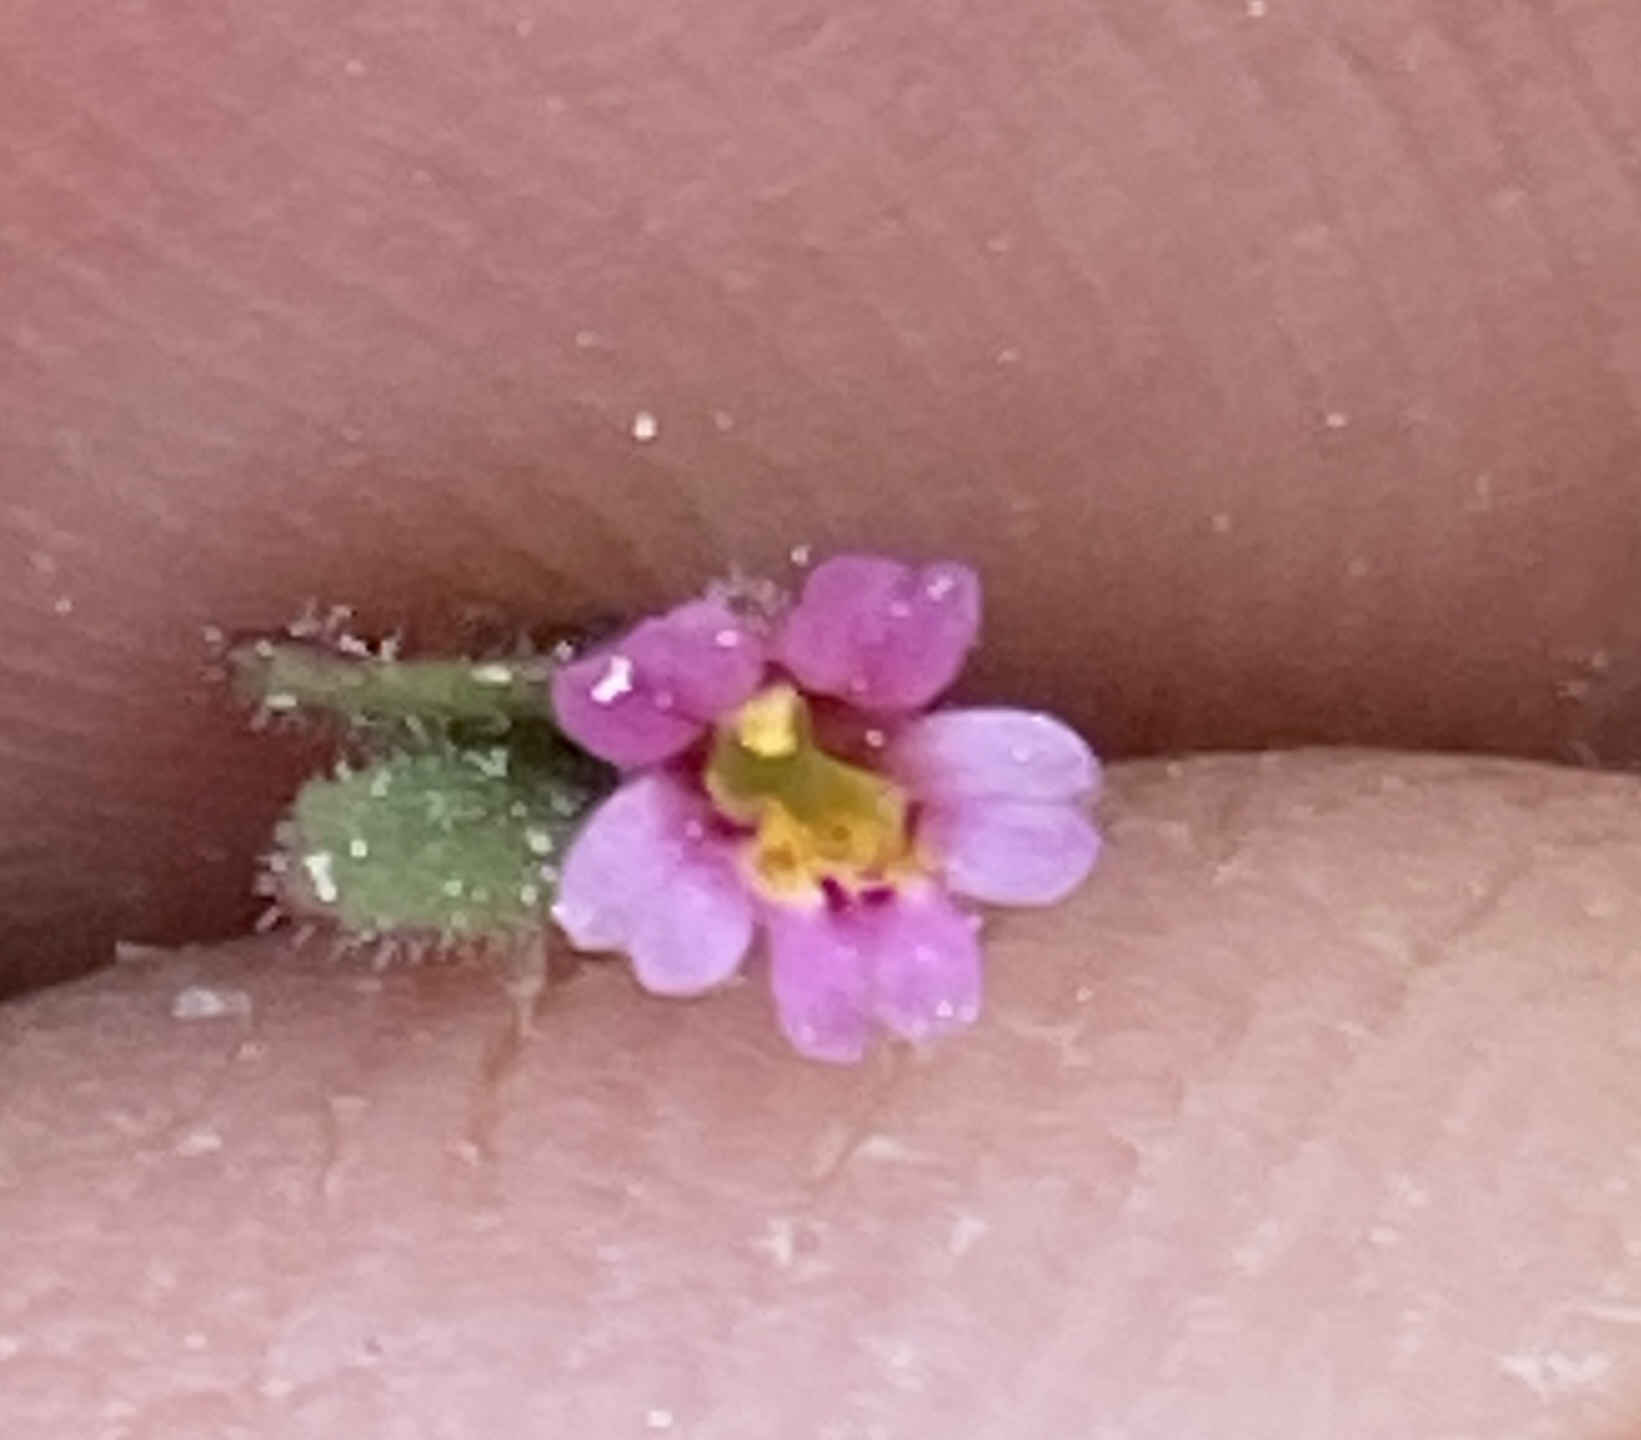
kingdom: Plantae
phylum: Tracheophyta
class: Magnoliopsida
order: Lamiales
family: Phrymaceae
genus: Erythranthe
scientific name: Erythranthe breweri
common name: Brewer's monkeyflower
